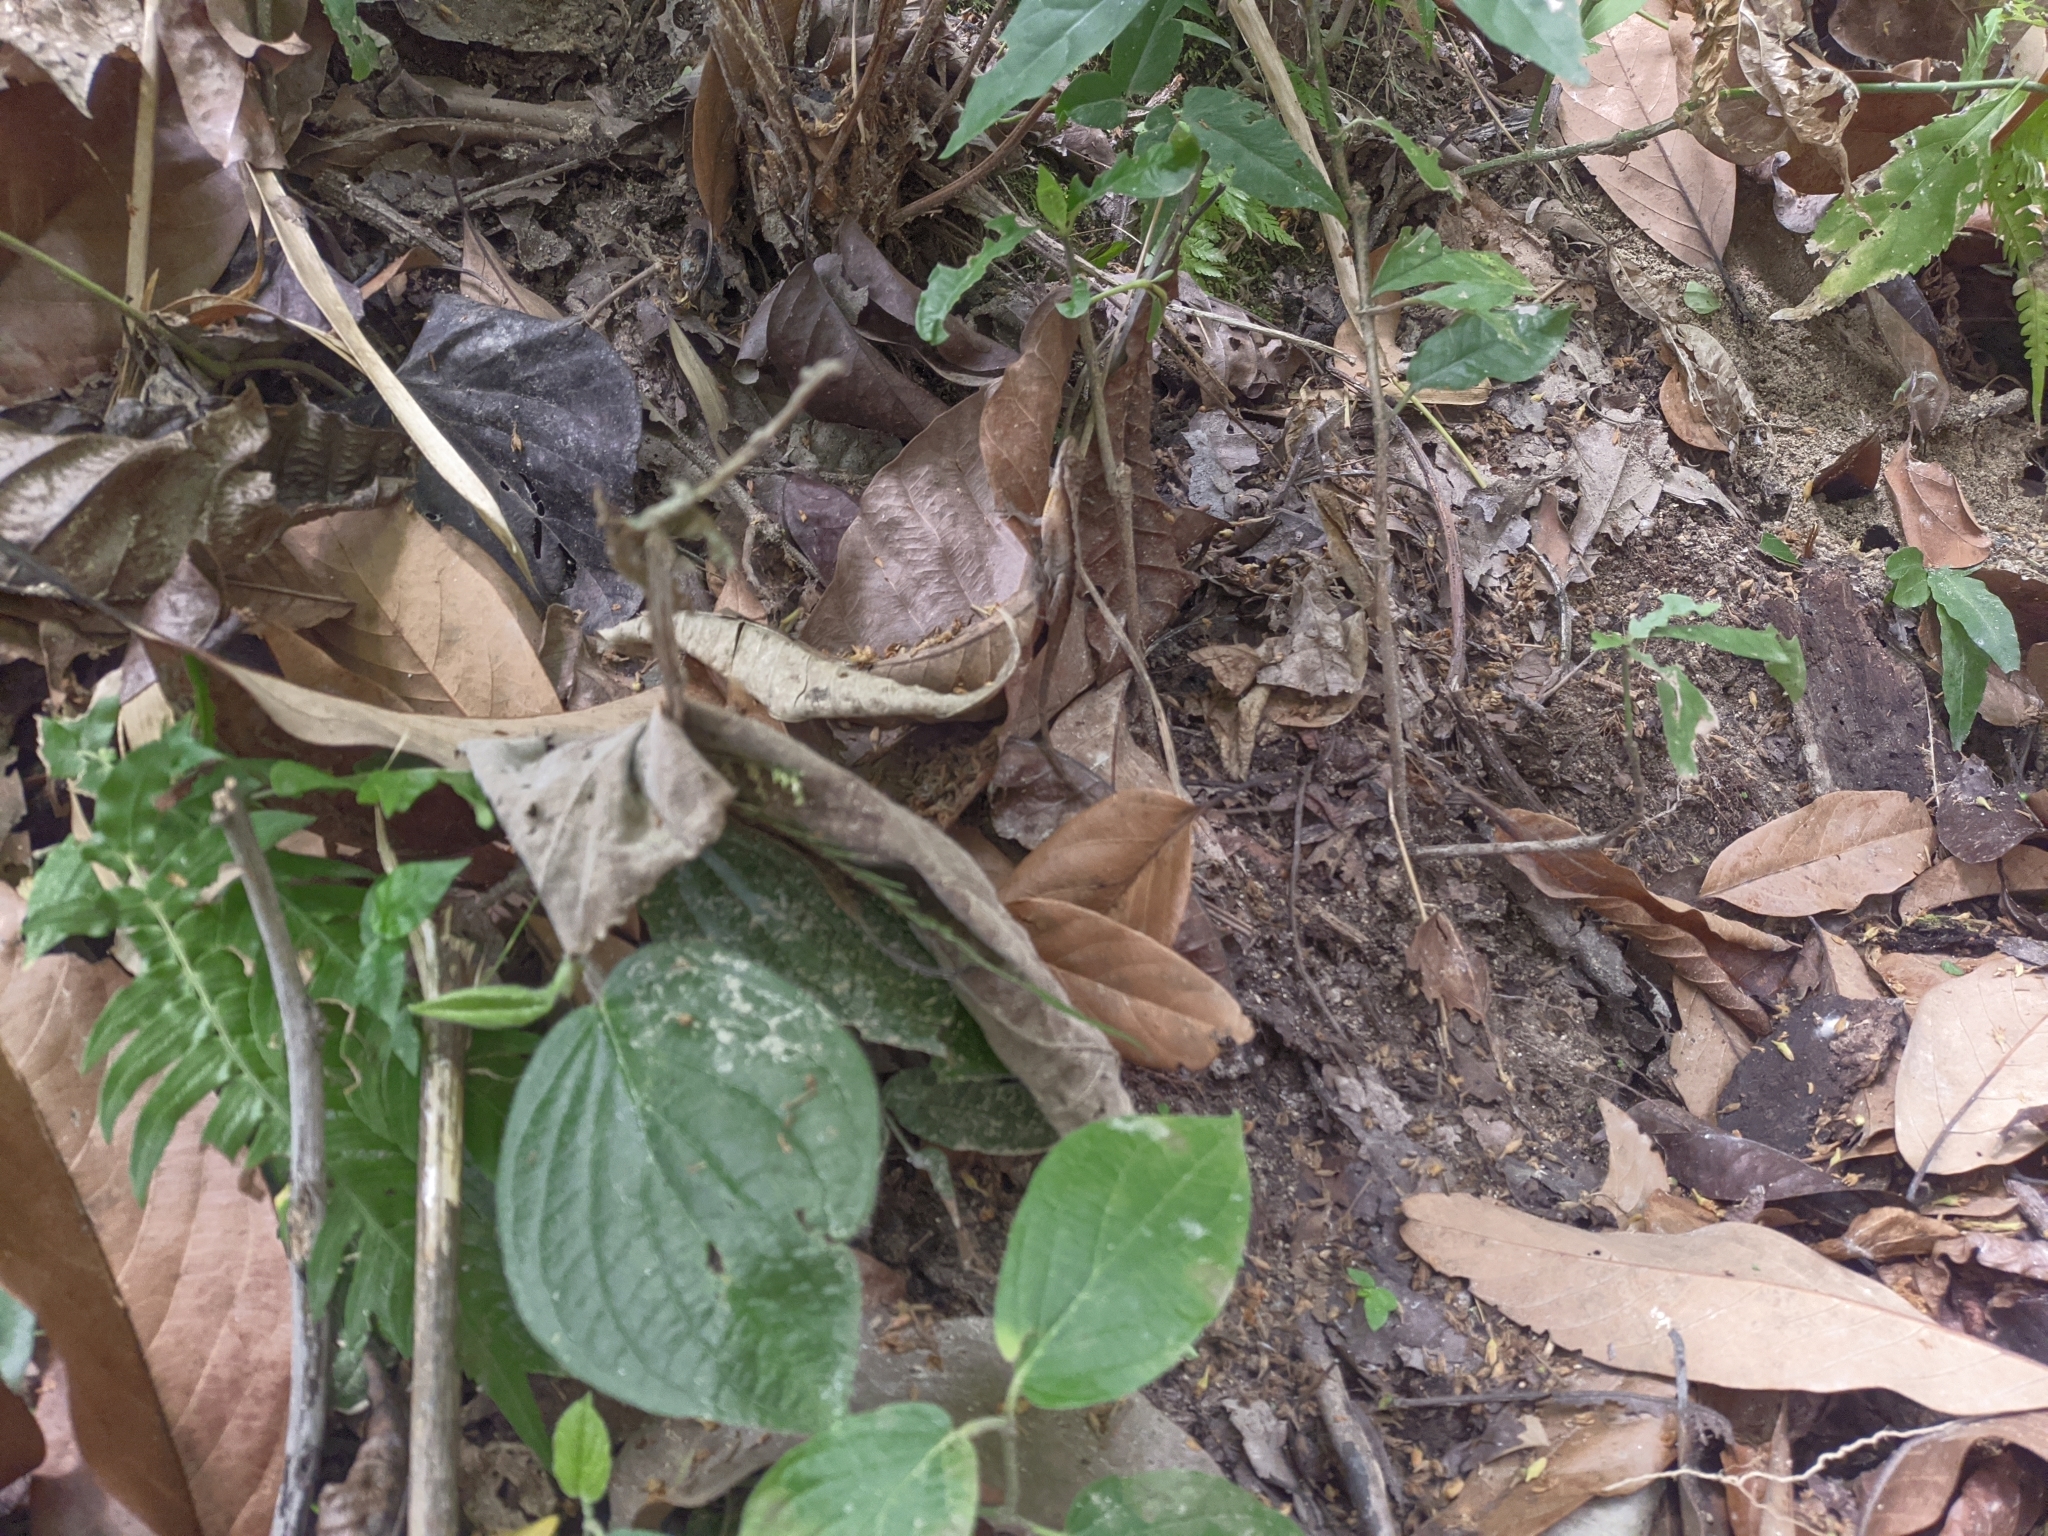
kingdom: Animalia
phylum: Chordata
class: Squamata
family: Dactyloidae
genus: Anolis
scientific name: Anolis gaigei
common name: Gaige’s anole
